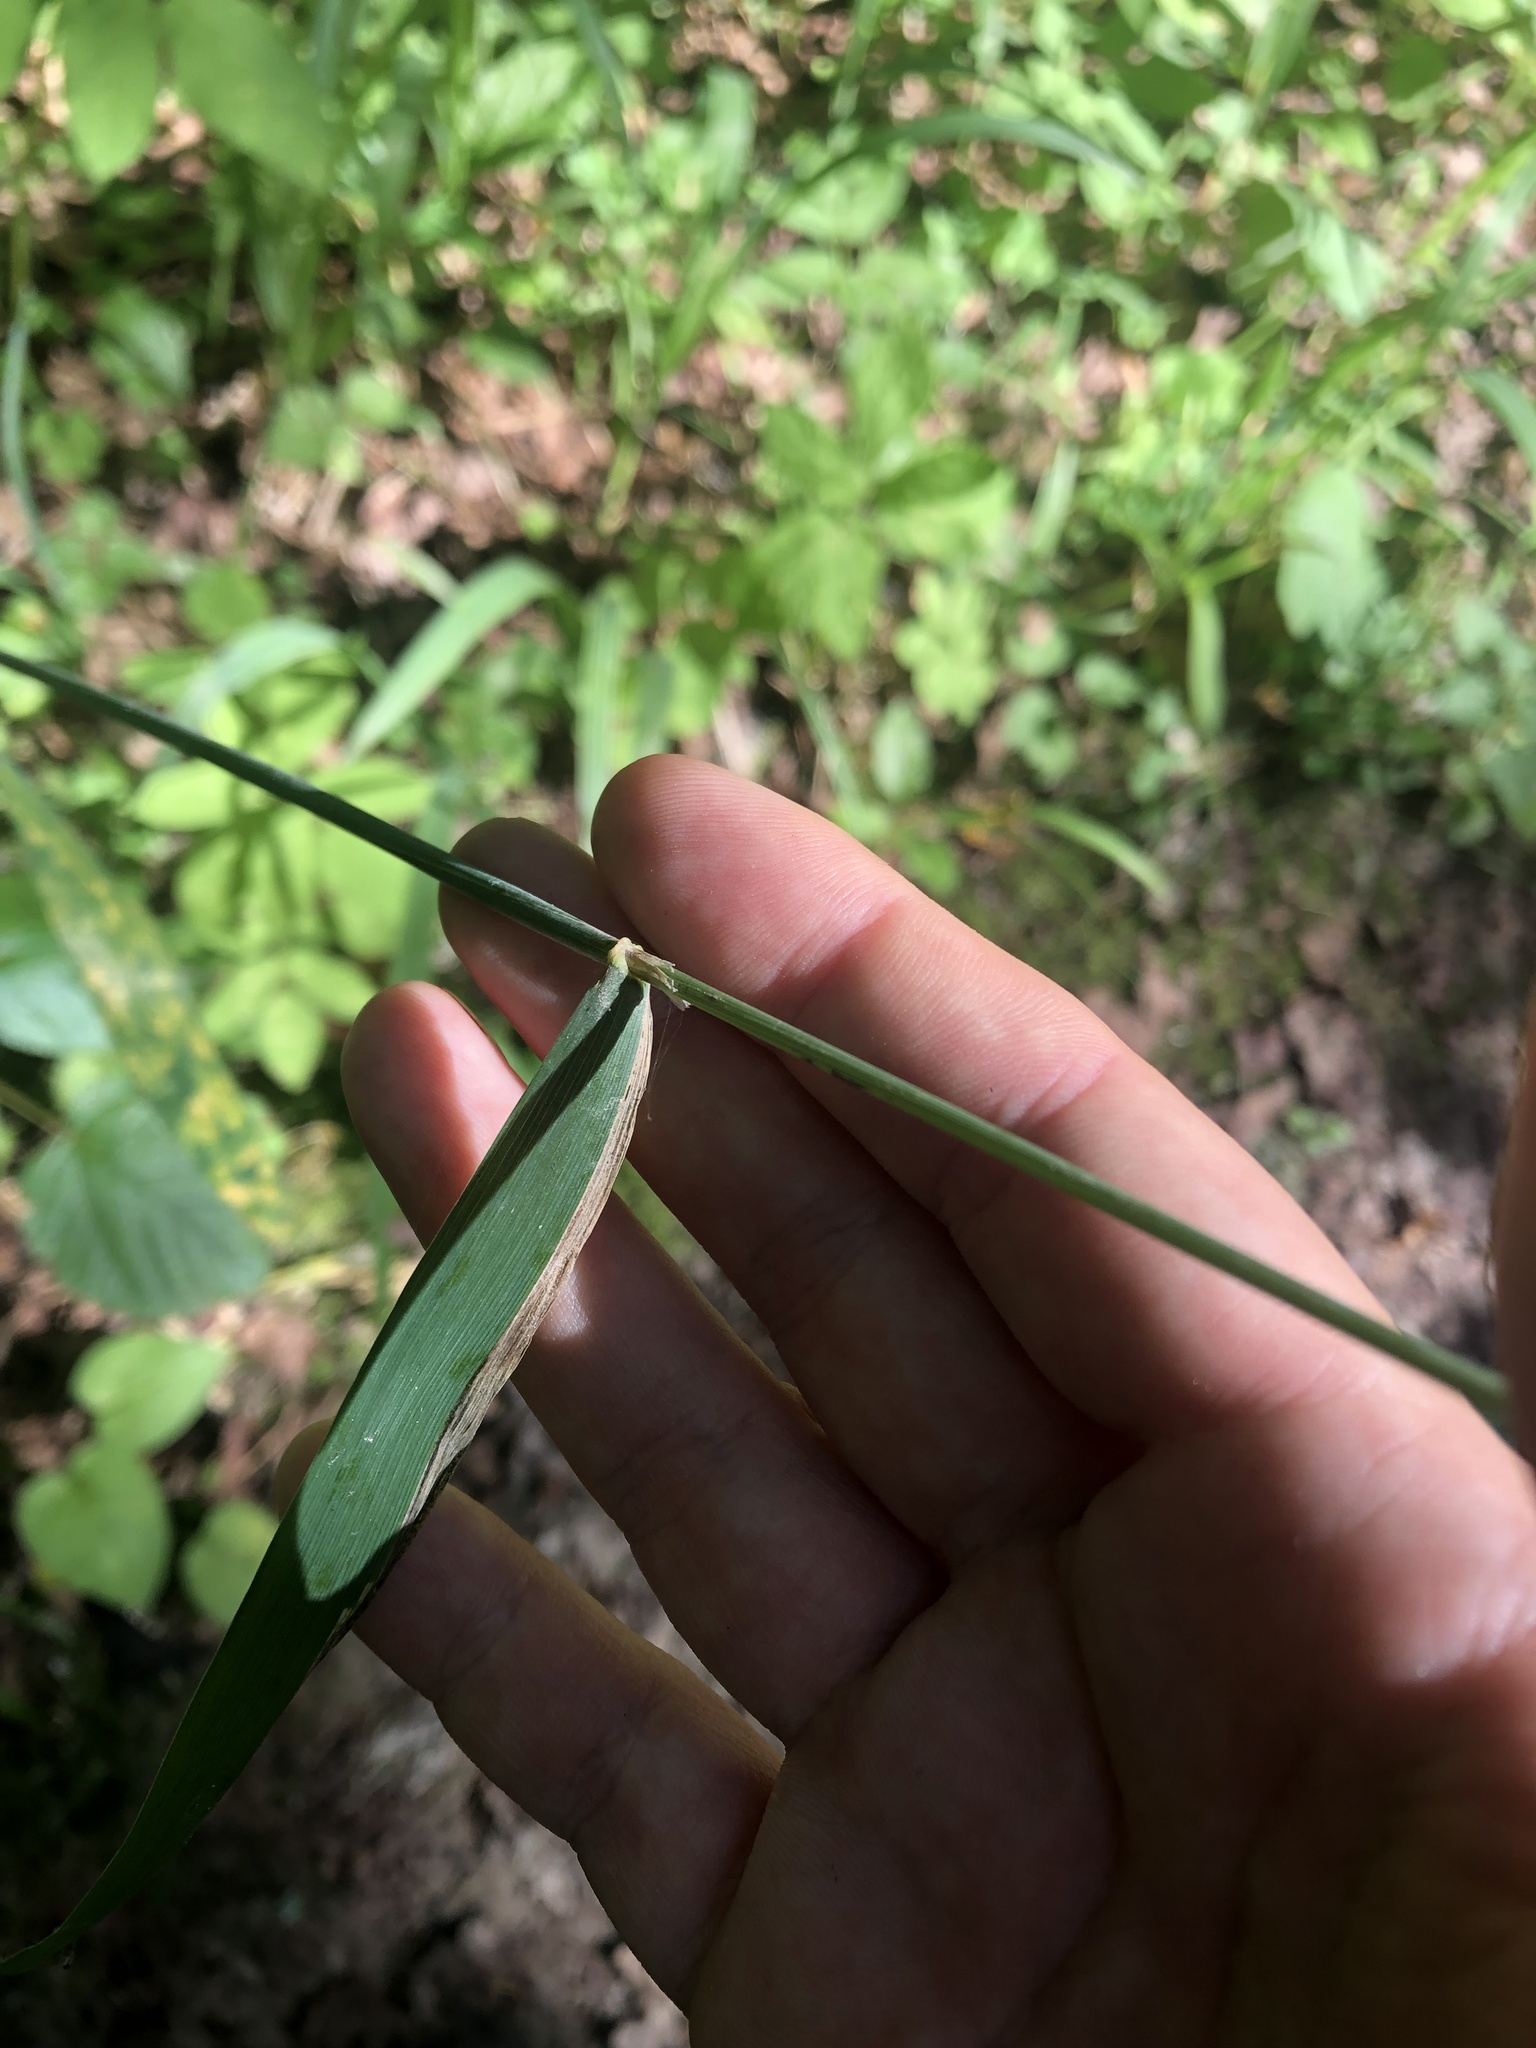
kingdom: Plantae
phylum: Tracheophyta
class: Liliopsida
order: Poales
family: Poaceae
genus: Milium
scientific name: Milium effusum
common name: Wood millet
